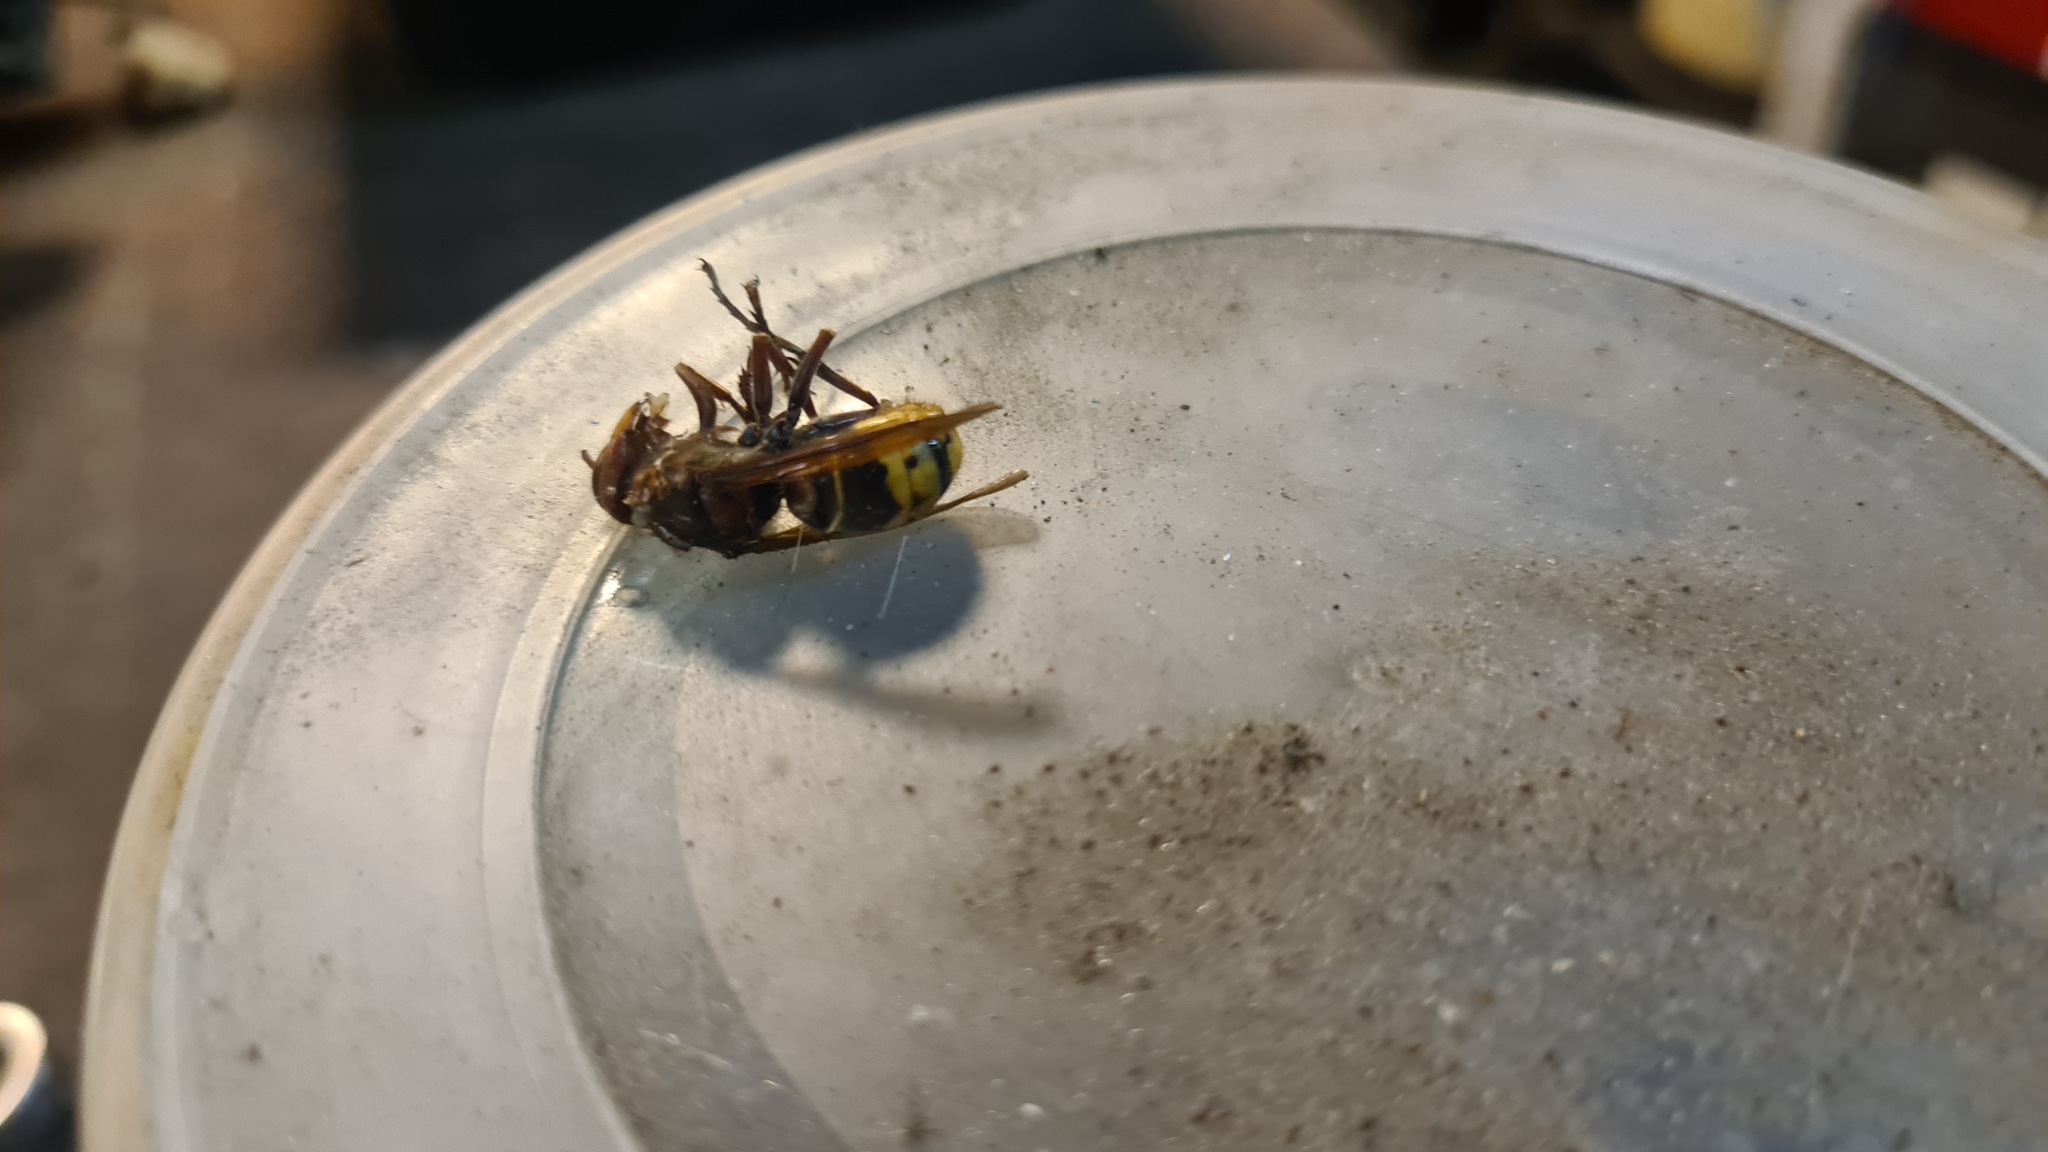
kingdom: Animalia
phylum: Arthropoda
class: Insecta
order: Hymenoptera
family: Vespidae
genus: Vespa
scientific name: Vespa crabro
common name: Hornet
